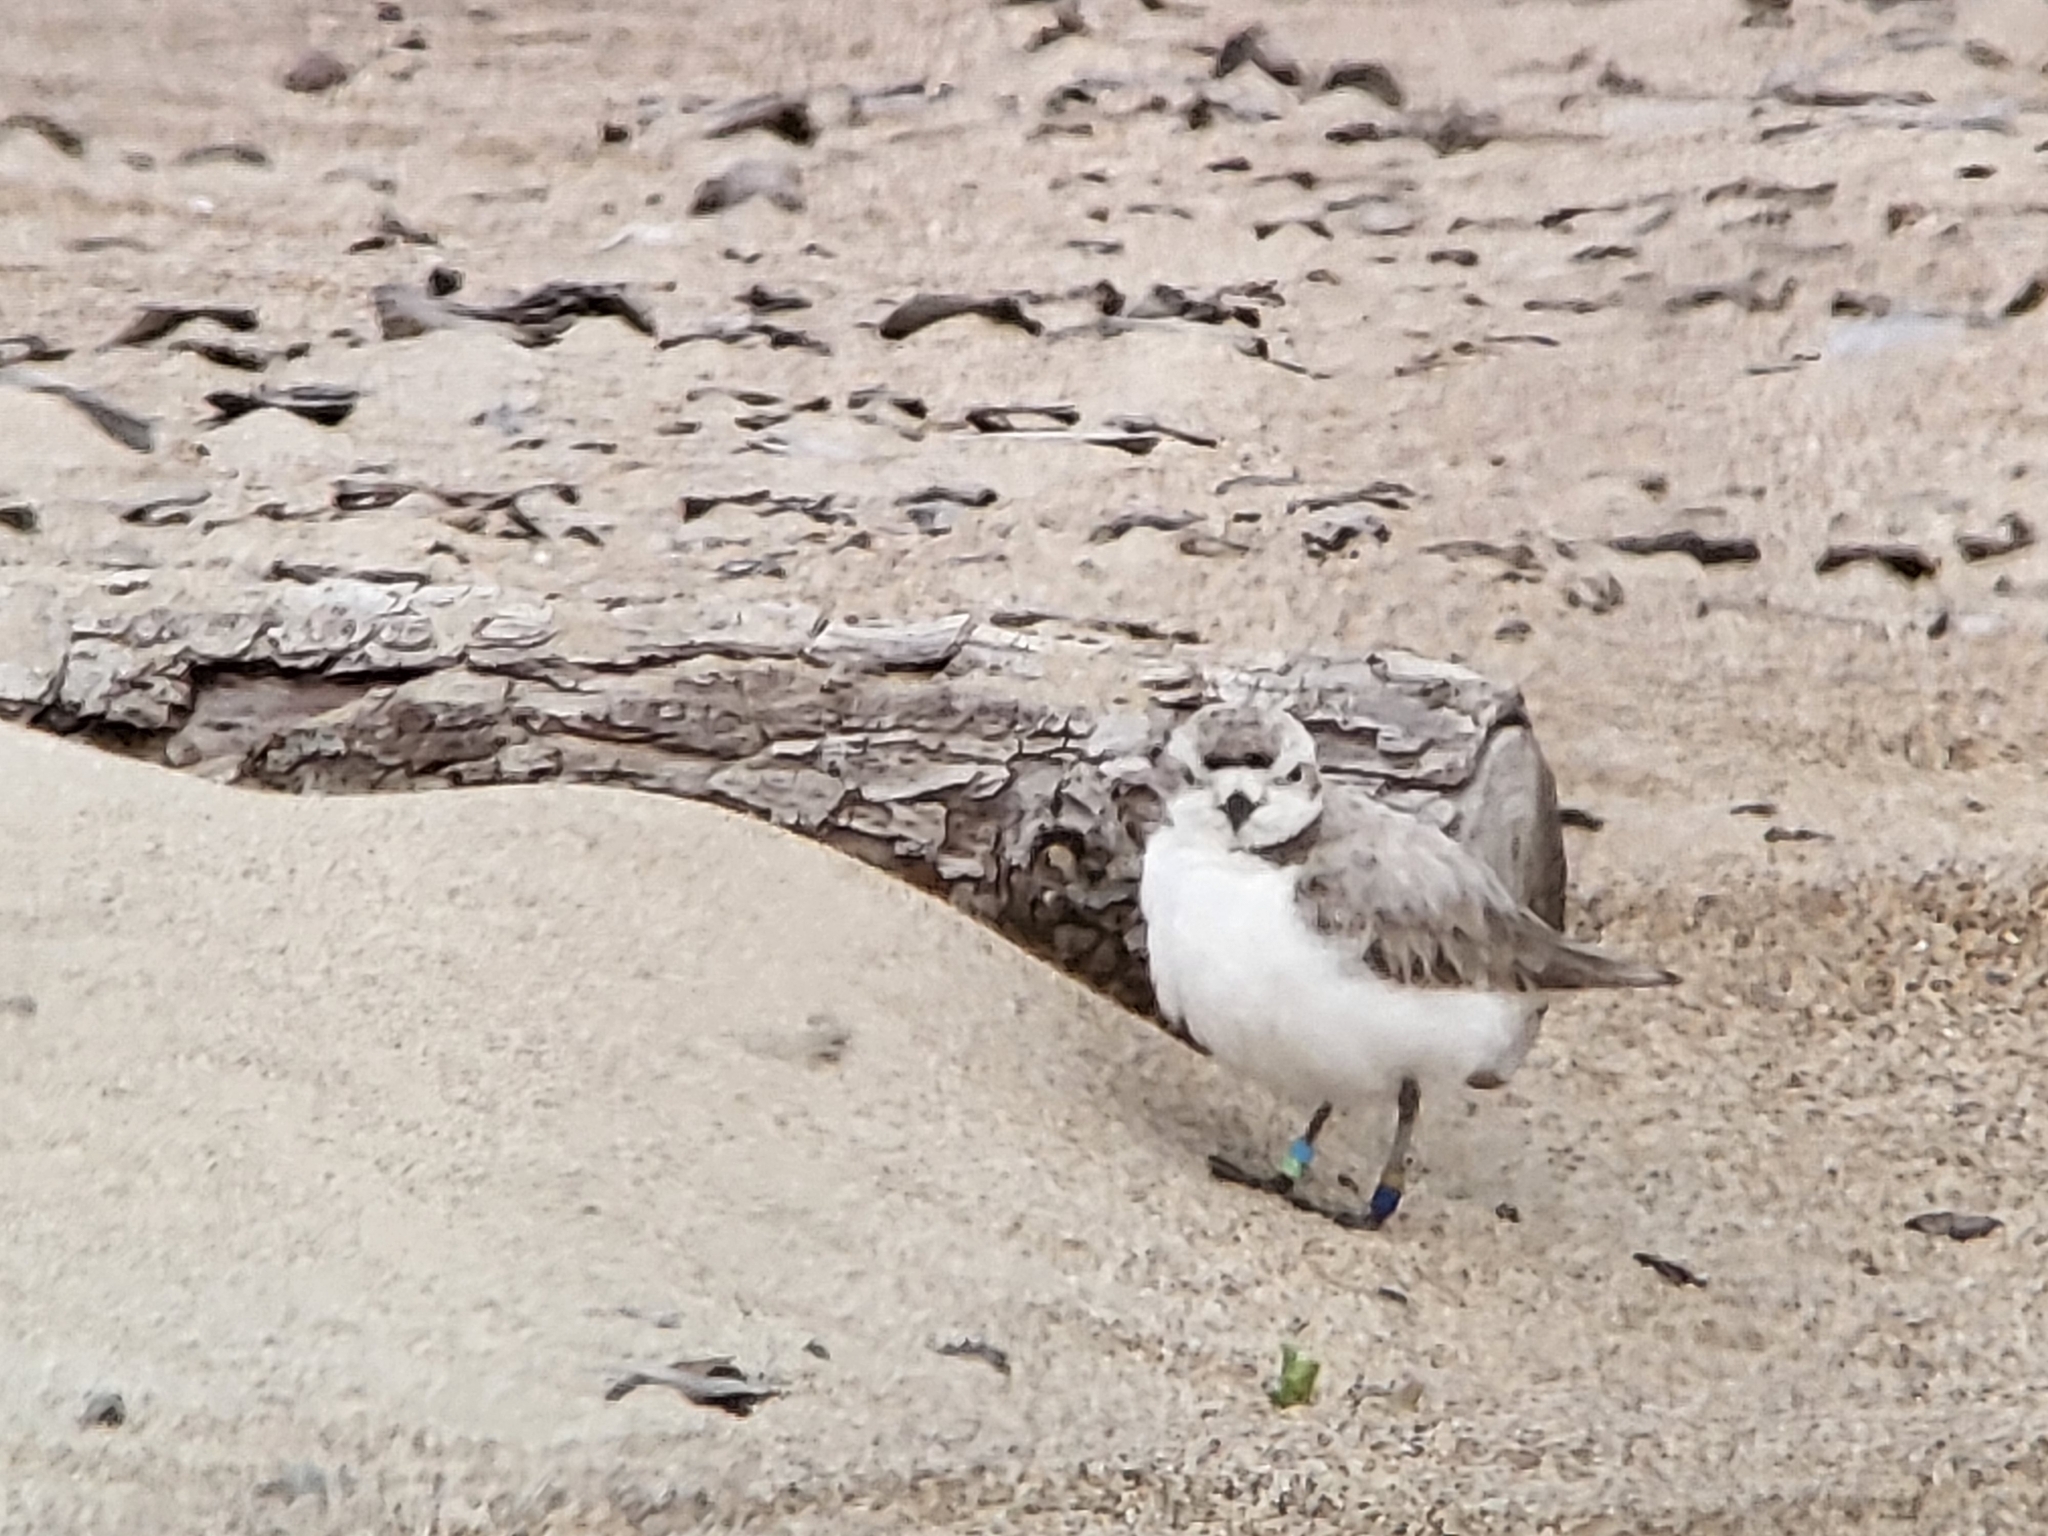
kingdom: Animalia
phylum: Chordata
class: Aves
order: Charadriiformes
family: Charadriidae
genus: Anarhynchus
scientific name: Anarhynchus
